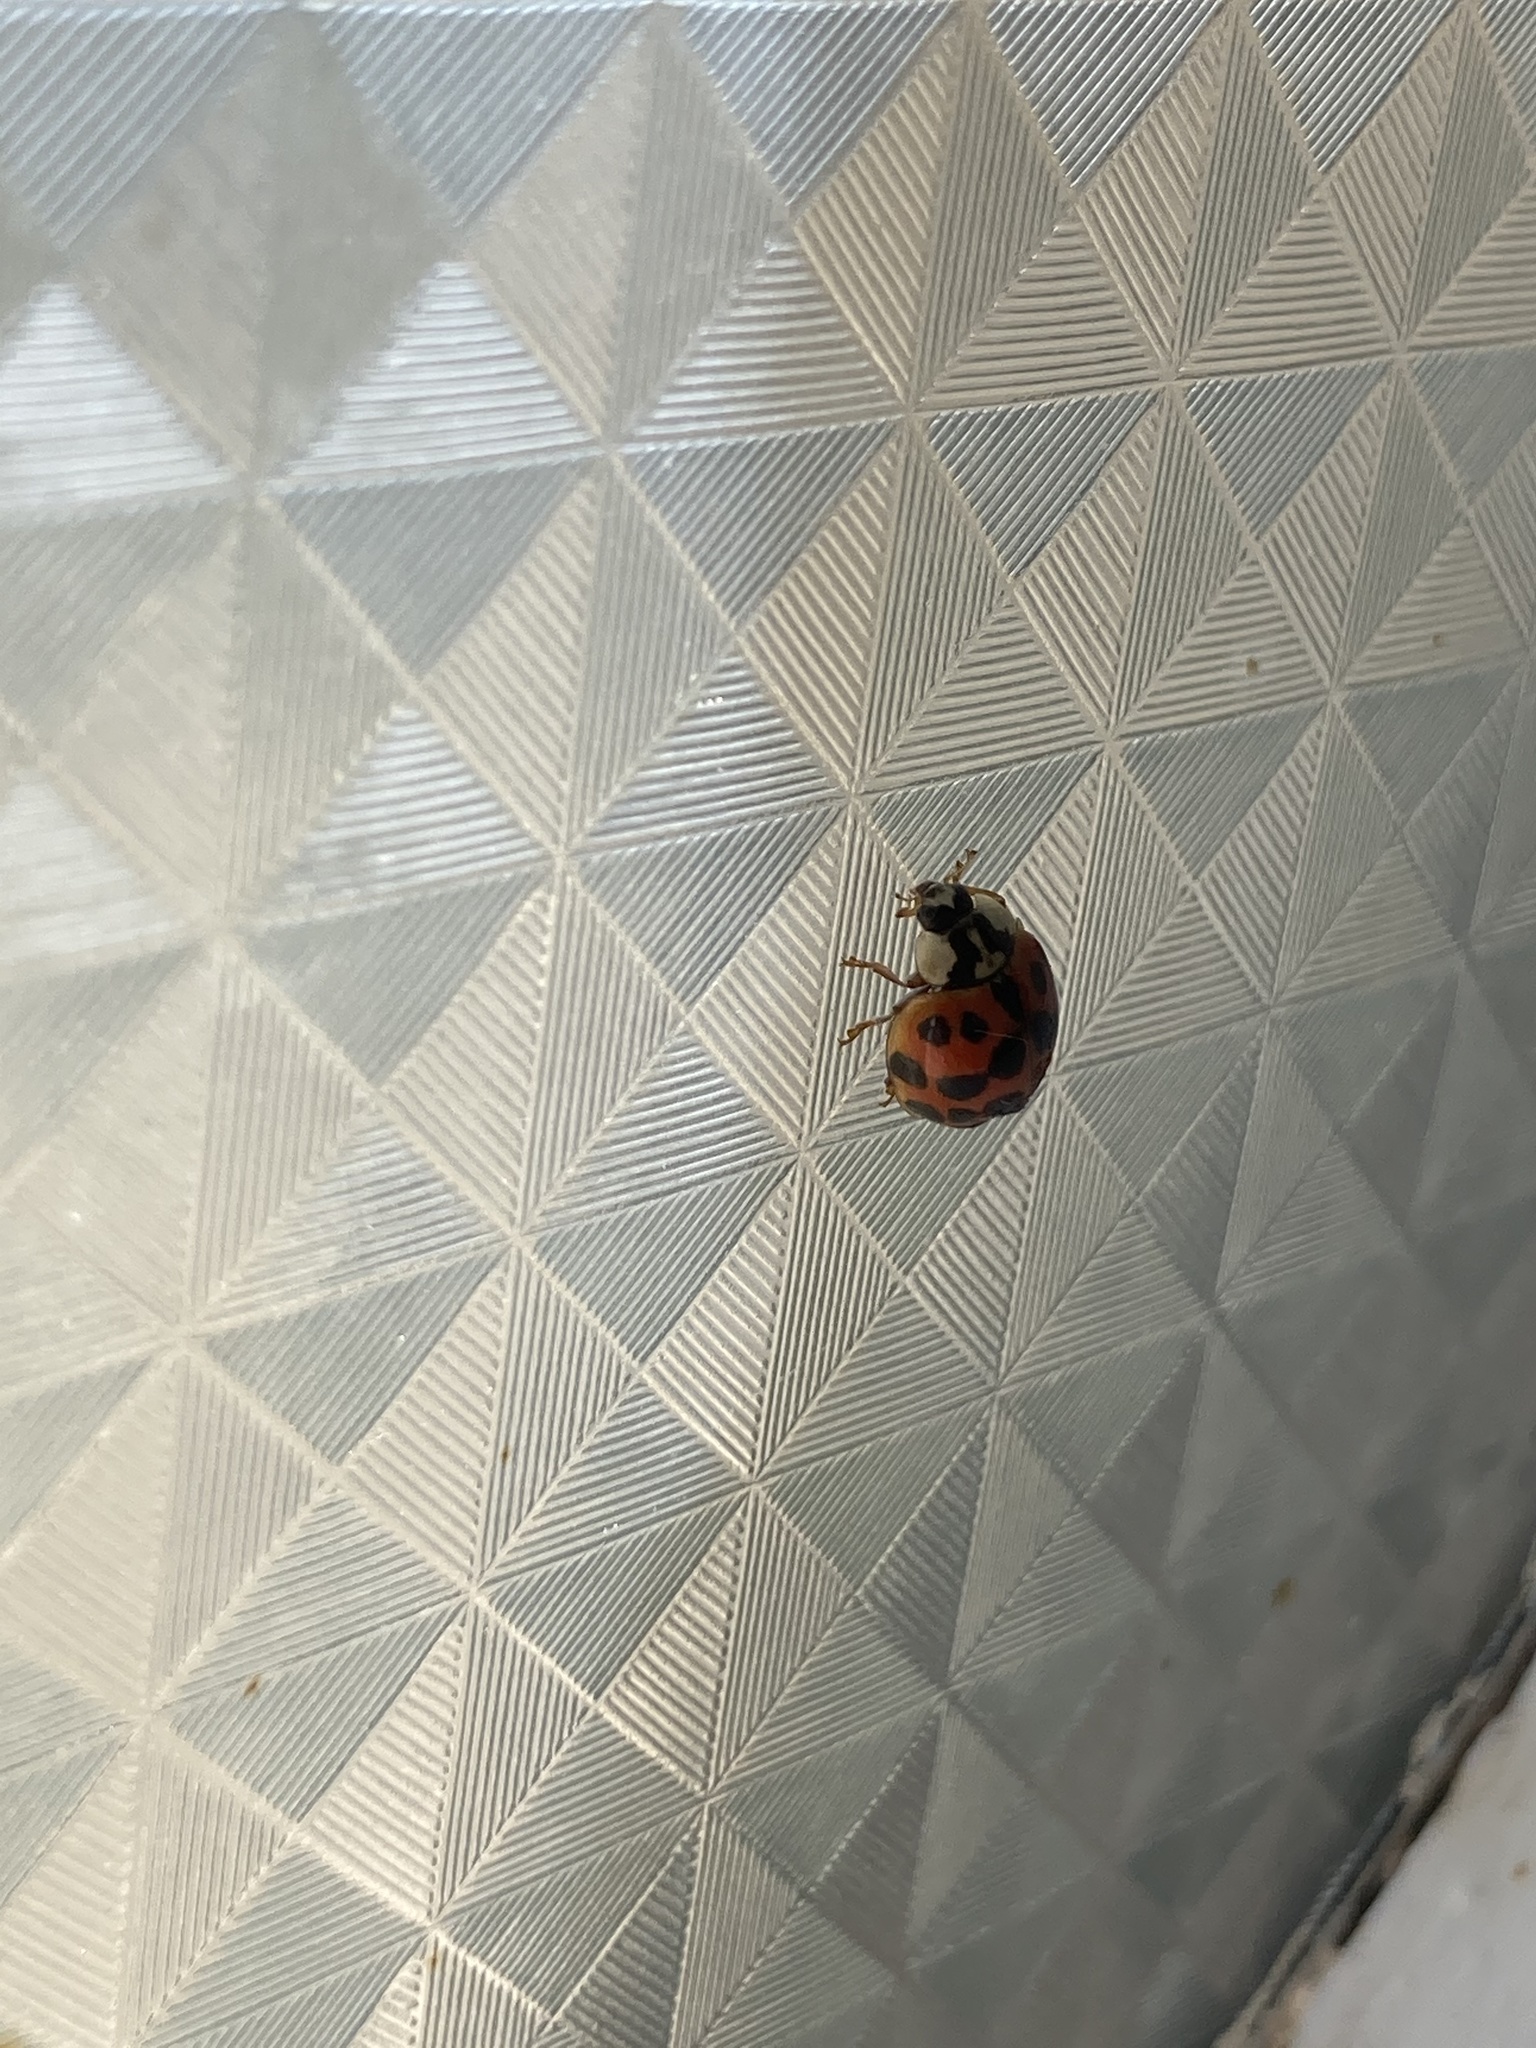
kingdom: Animalia
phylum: Arthropoda
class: Insecta
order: Coleoptera
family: Coccinellidae
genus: Harmonia
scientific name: Harmonia axyridis
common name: Harlequin ladybird
